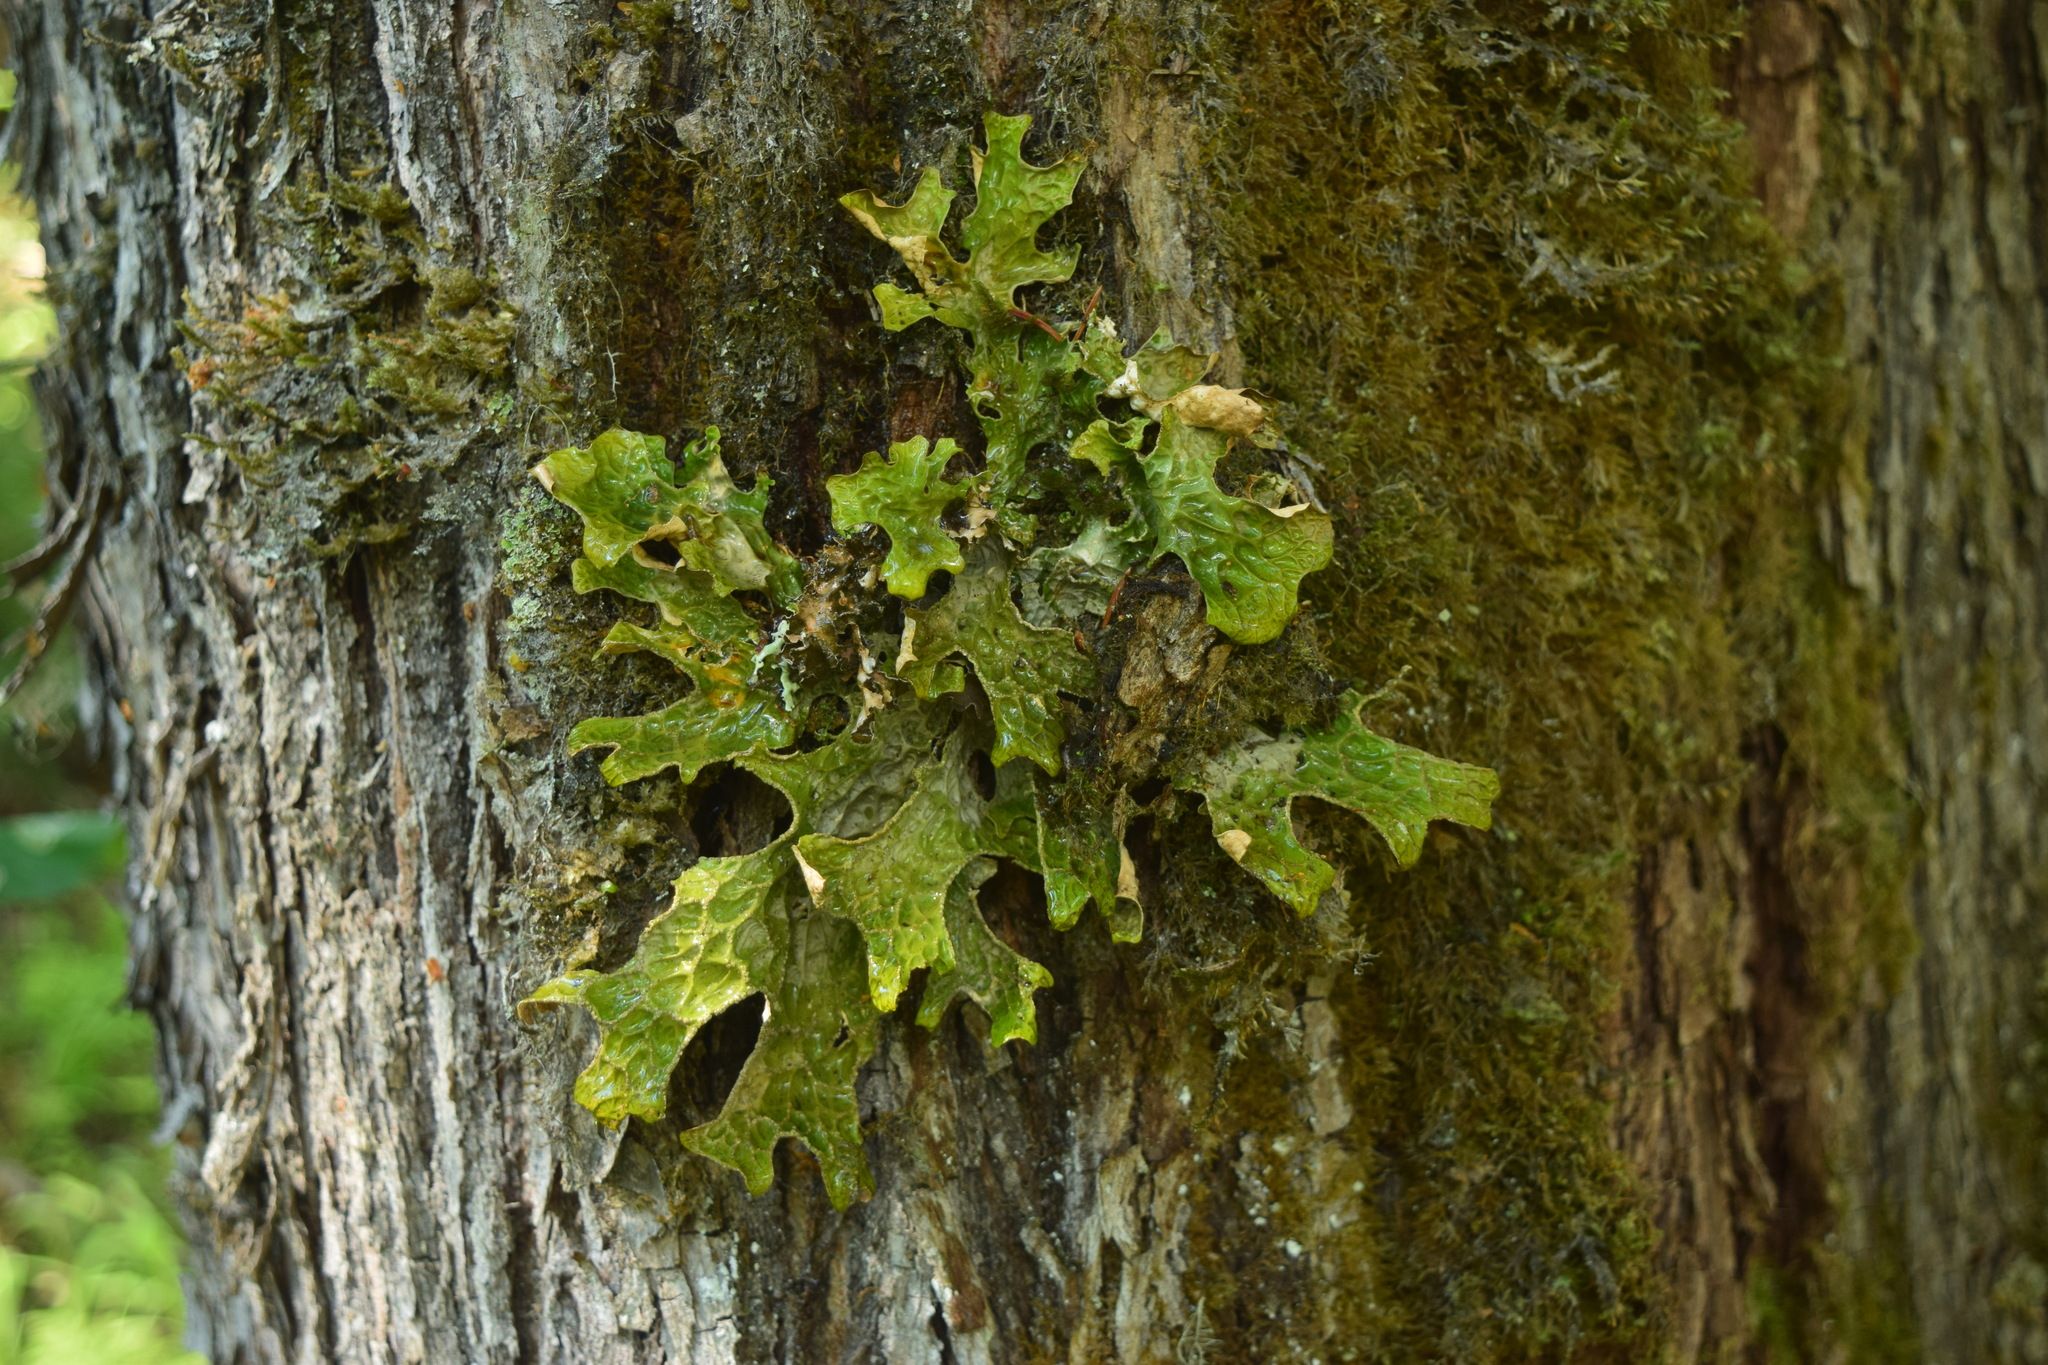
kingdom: Fungi
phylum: Ascomycota
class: Lecanoromycetes
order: Peltigerales
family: Lobariaceae
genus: Lobaria
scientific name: Lobaria pulmonaria
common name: Lungwort
